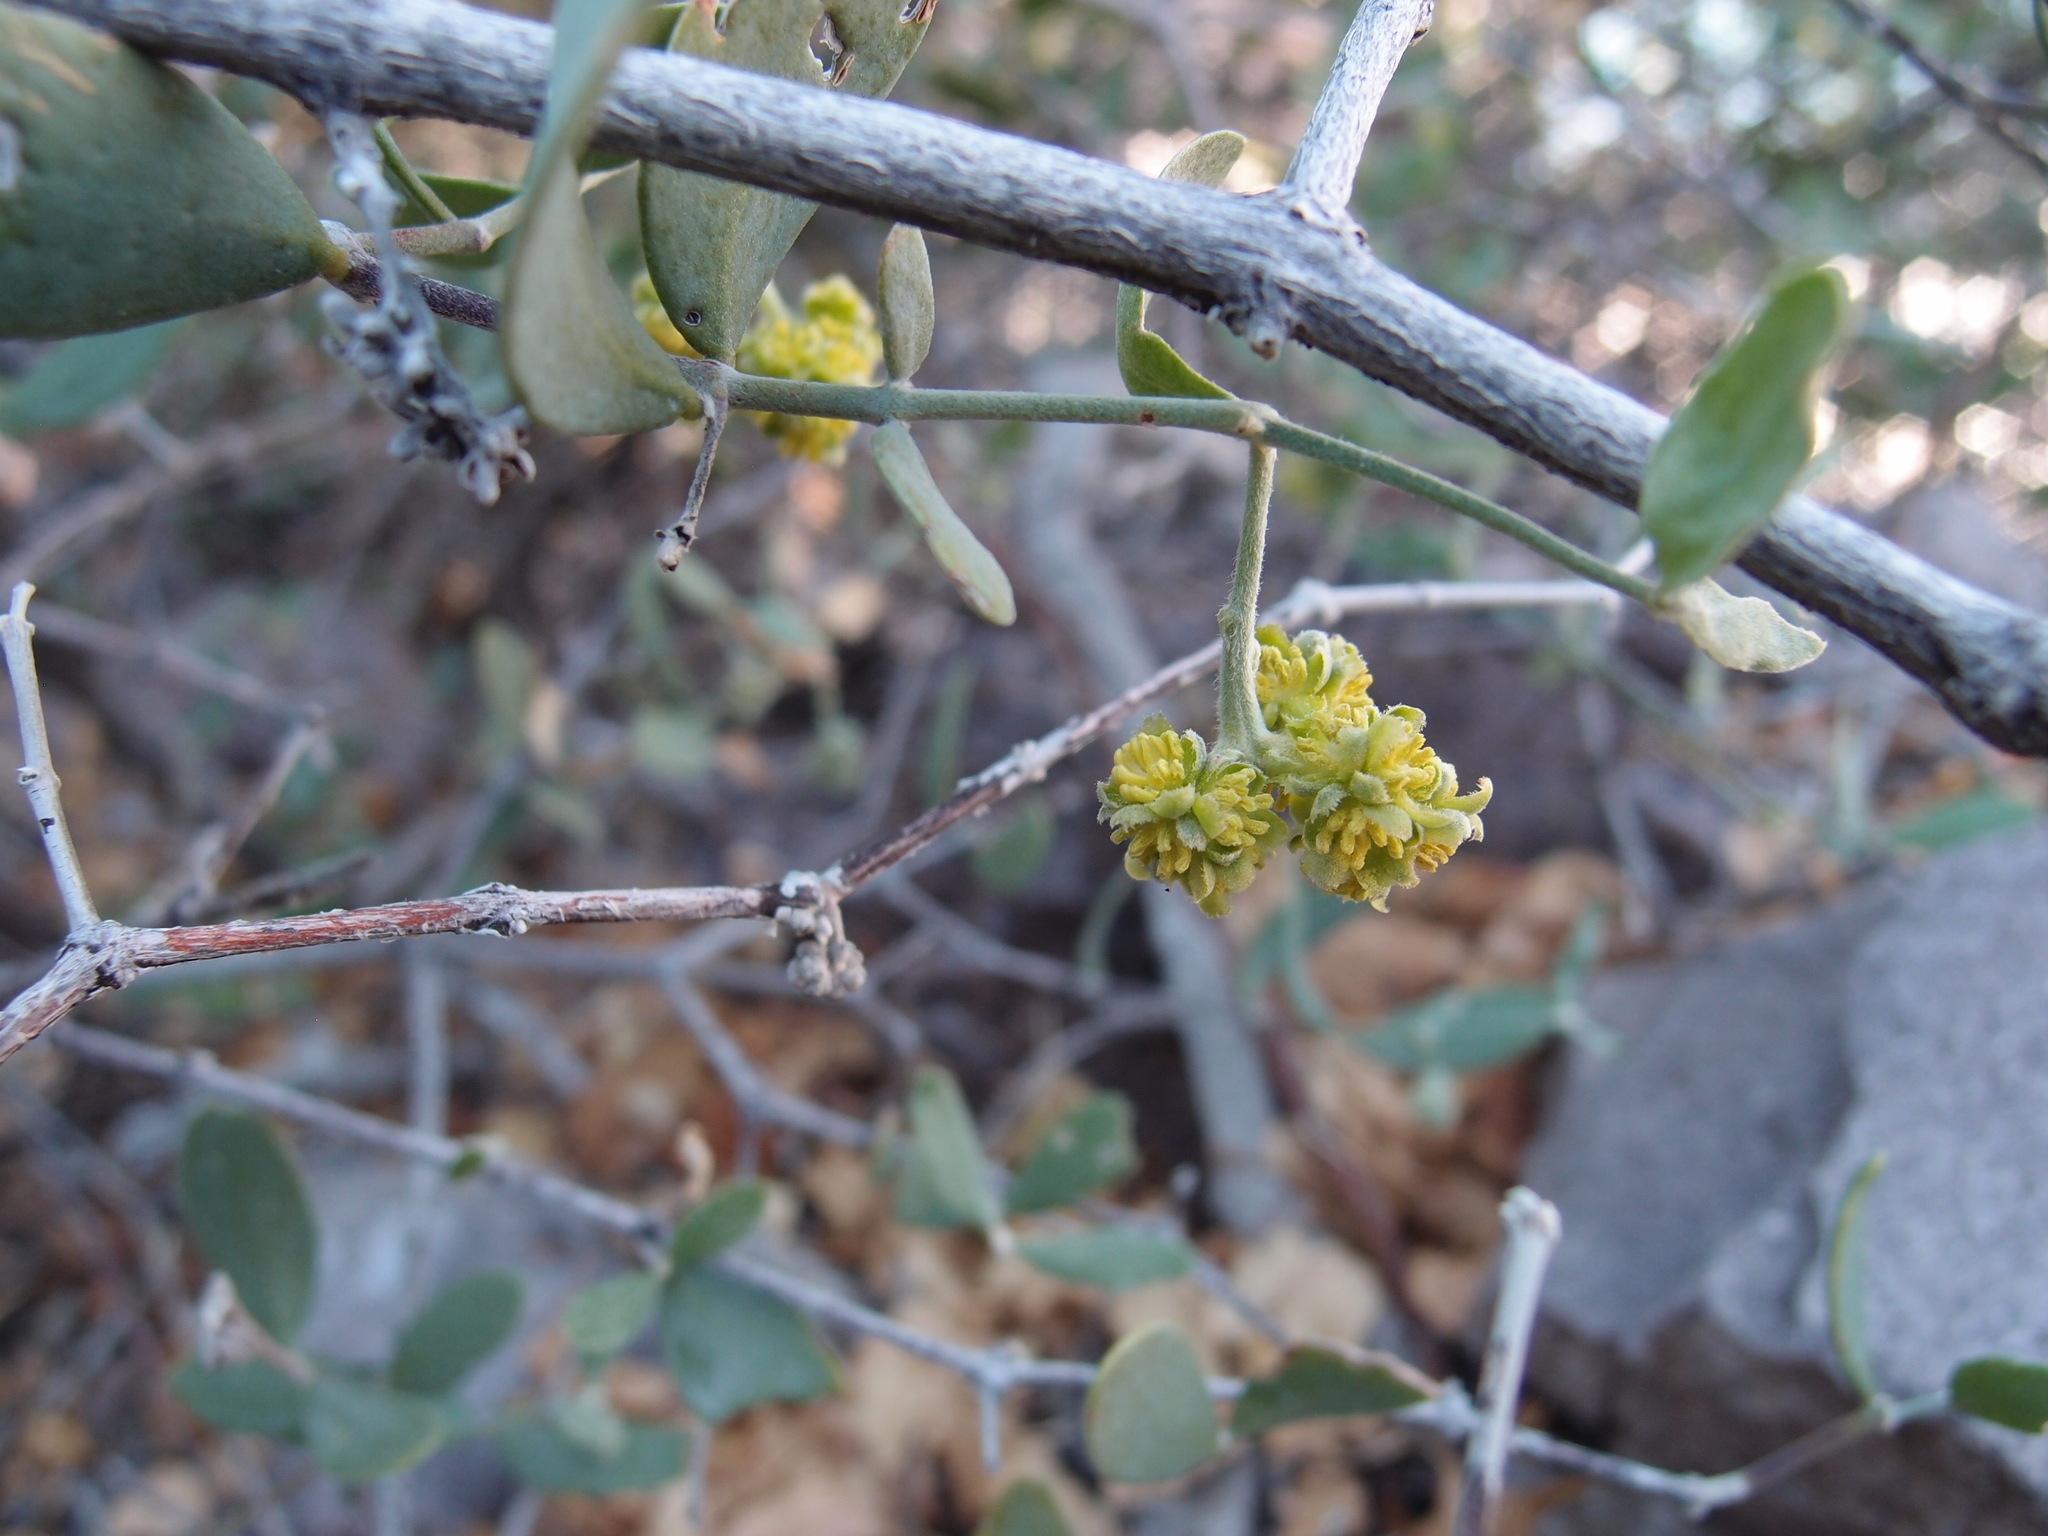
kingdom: Plantae
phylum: Tracheophyta
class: Magnoliopsida
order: Caryophyllales
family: Simmondsiaceae
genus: Simmondsia
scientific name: Simmondsia chinensis
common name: Jojoba
